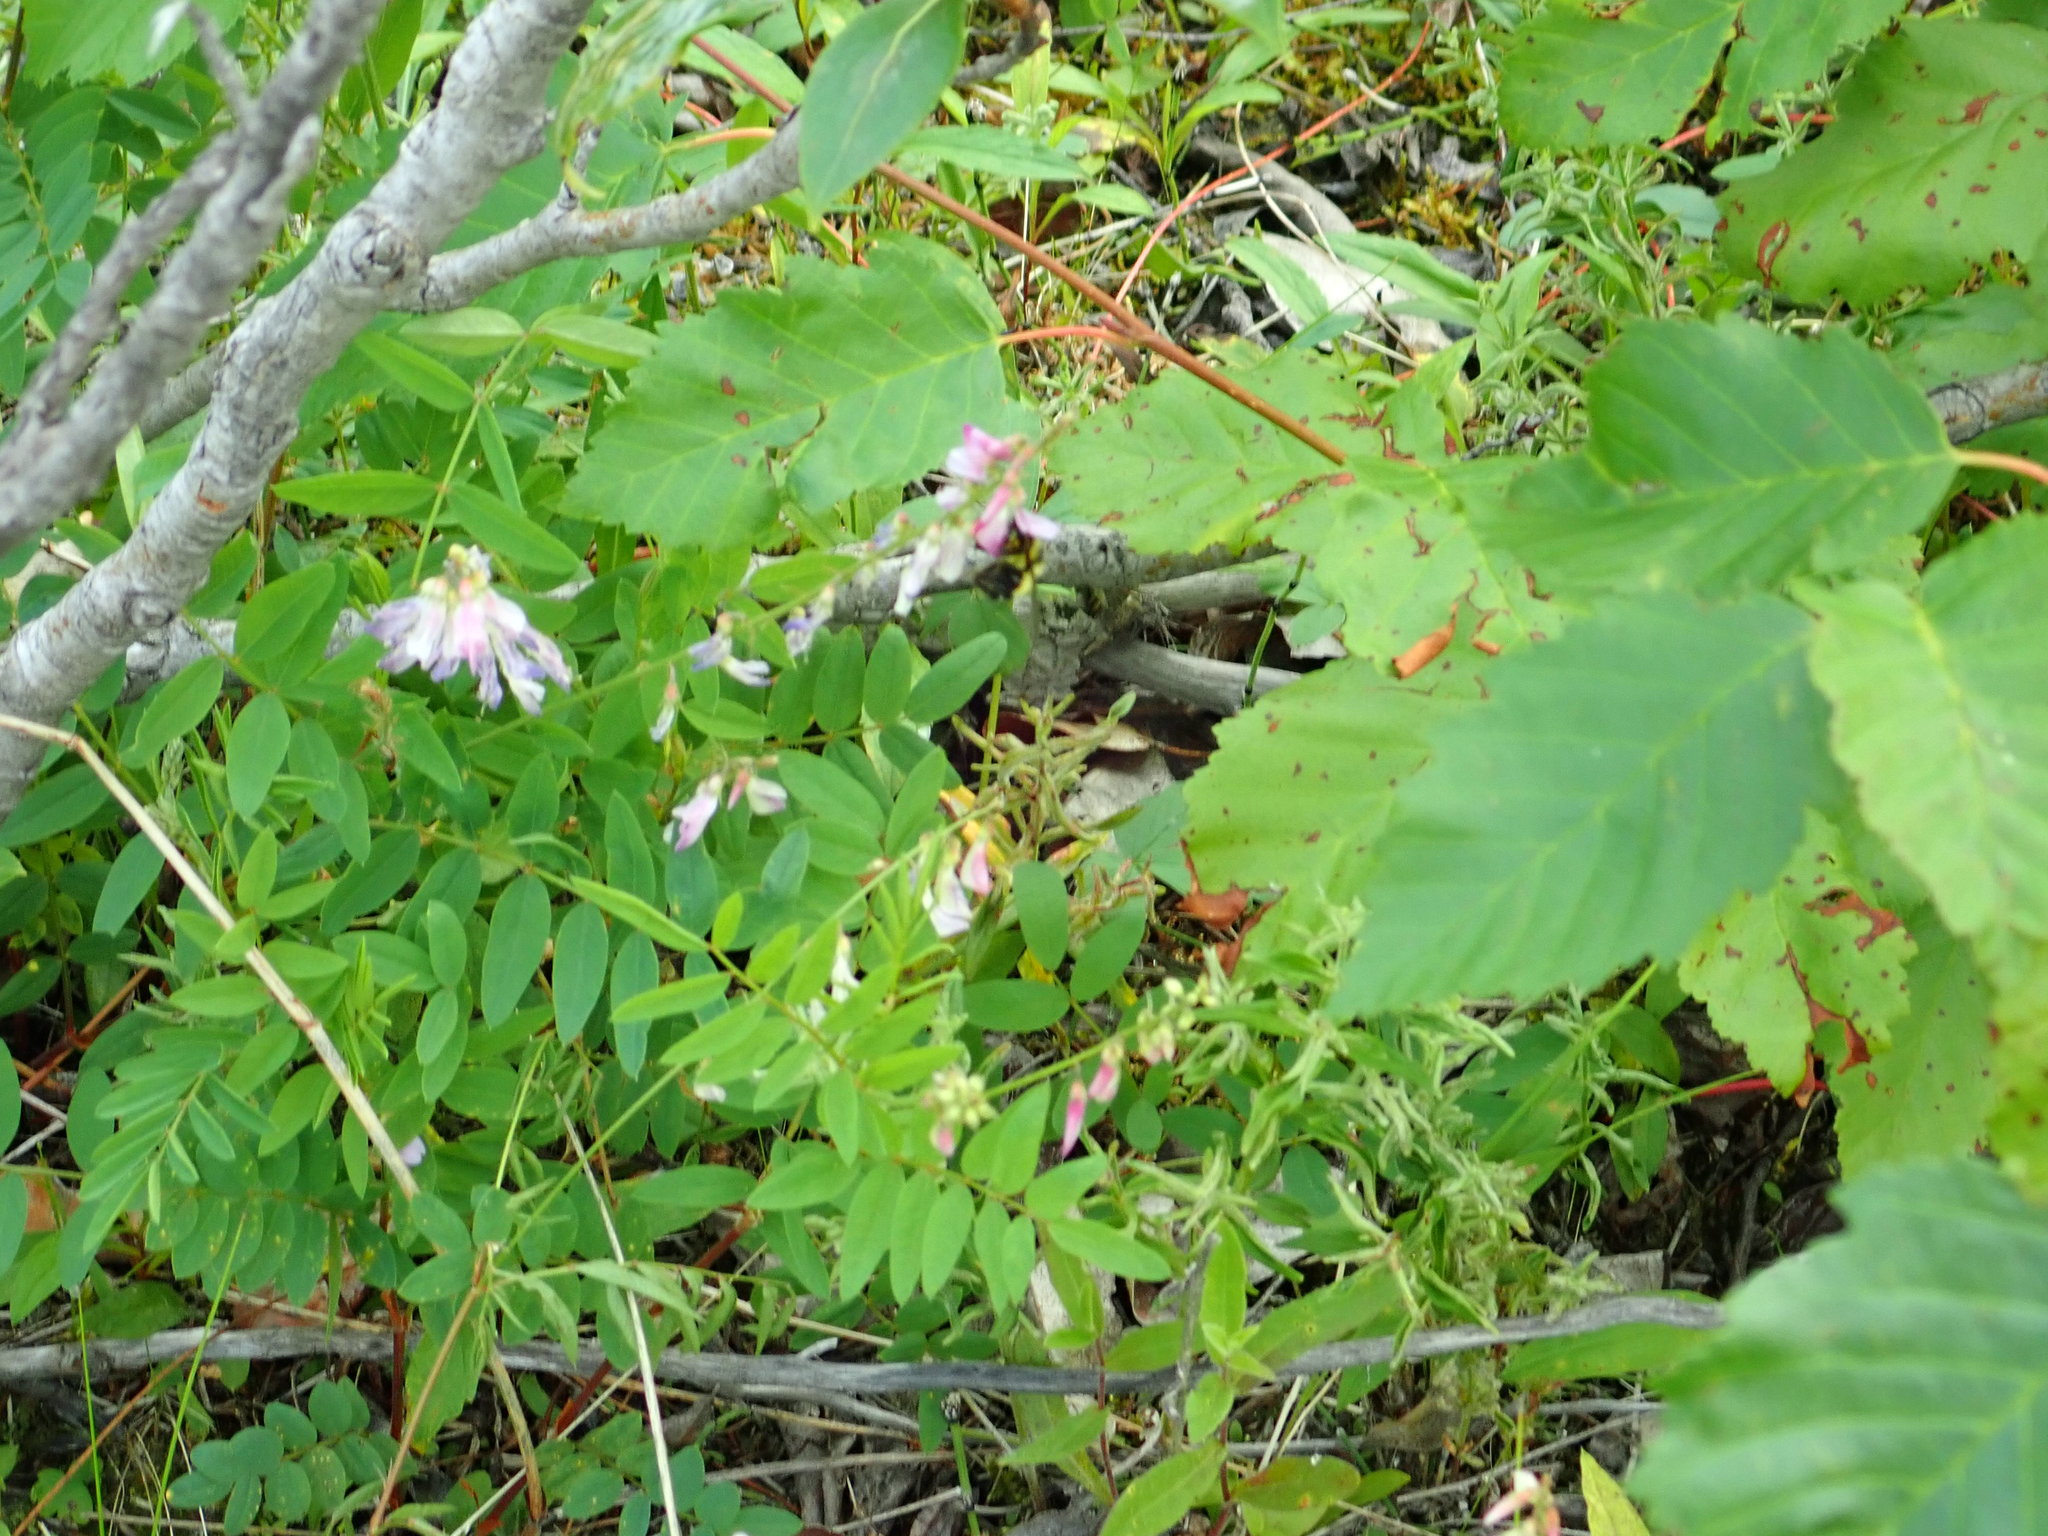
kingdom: Plantae
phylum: Tracheophyta
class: Magnoliopsida
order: Fabales
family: Fabaceae
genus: Hedysarum
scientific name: Hedysarum alpinum
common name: Alpine sweet-vetch
